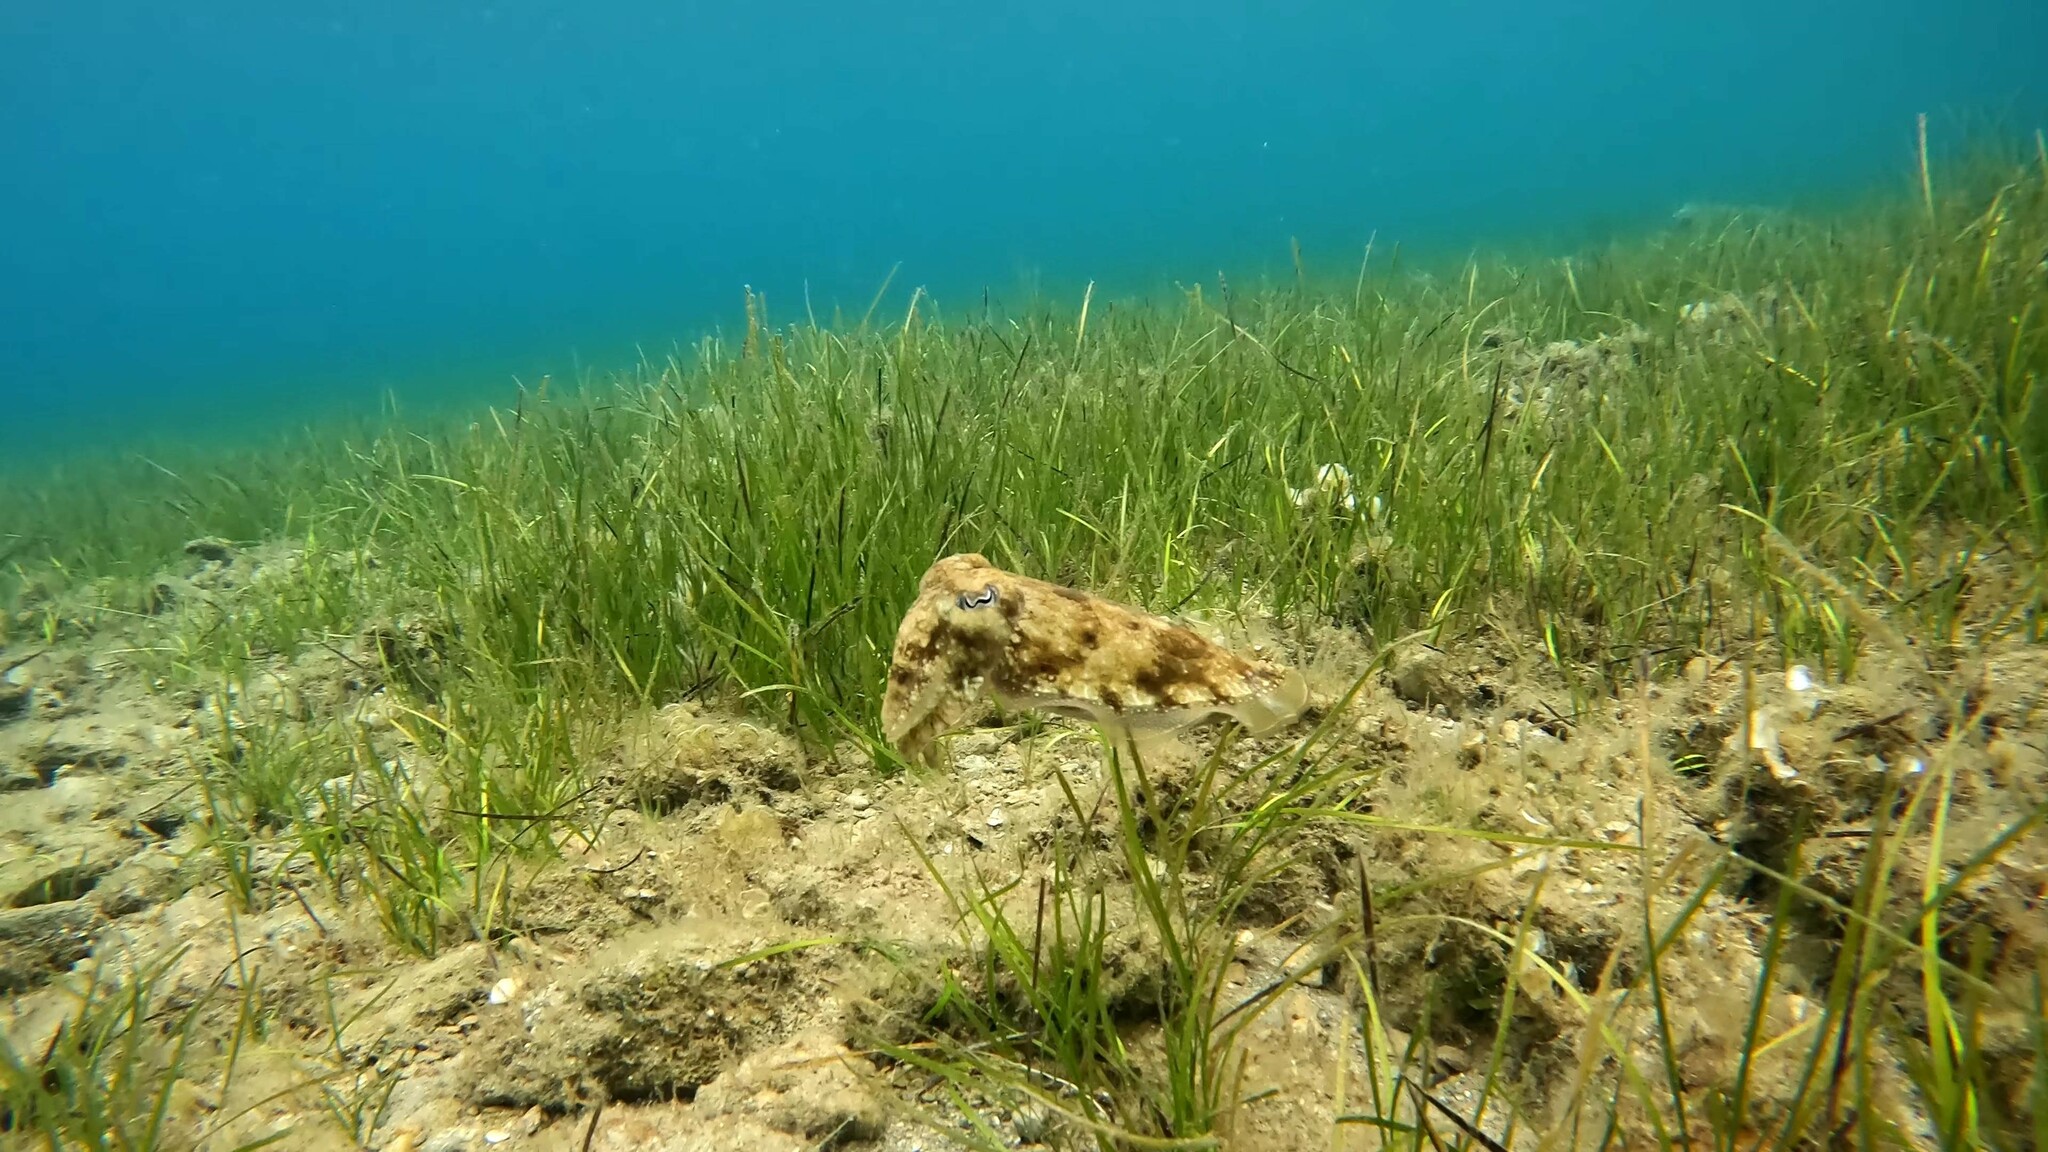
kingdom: Animalia
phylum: Mollusca
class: Cephalopoda
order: Sepiida
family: Sepiidae
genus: Sepia
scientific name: Sepia officinalis
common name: Common cuttlefish
